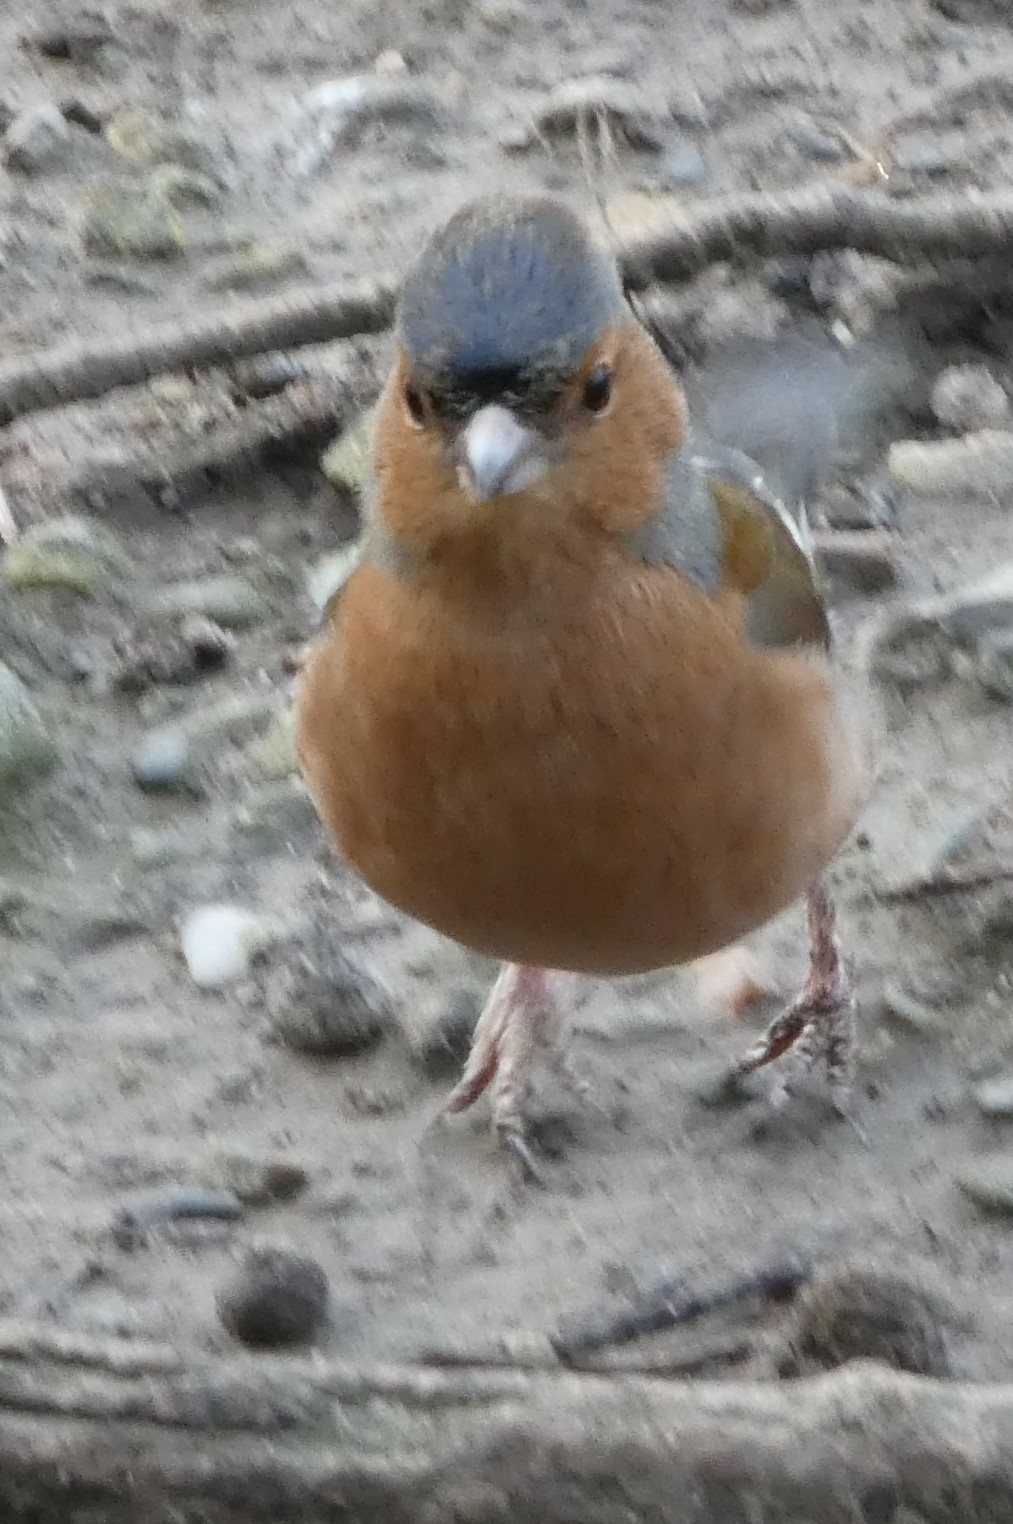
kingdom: Animalia
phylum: Chordata
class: Aves
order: Passeriformes
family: Fringillidae
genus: Fringilla
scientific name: Fringilla coelebs
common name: Common chaffinch
